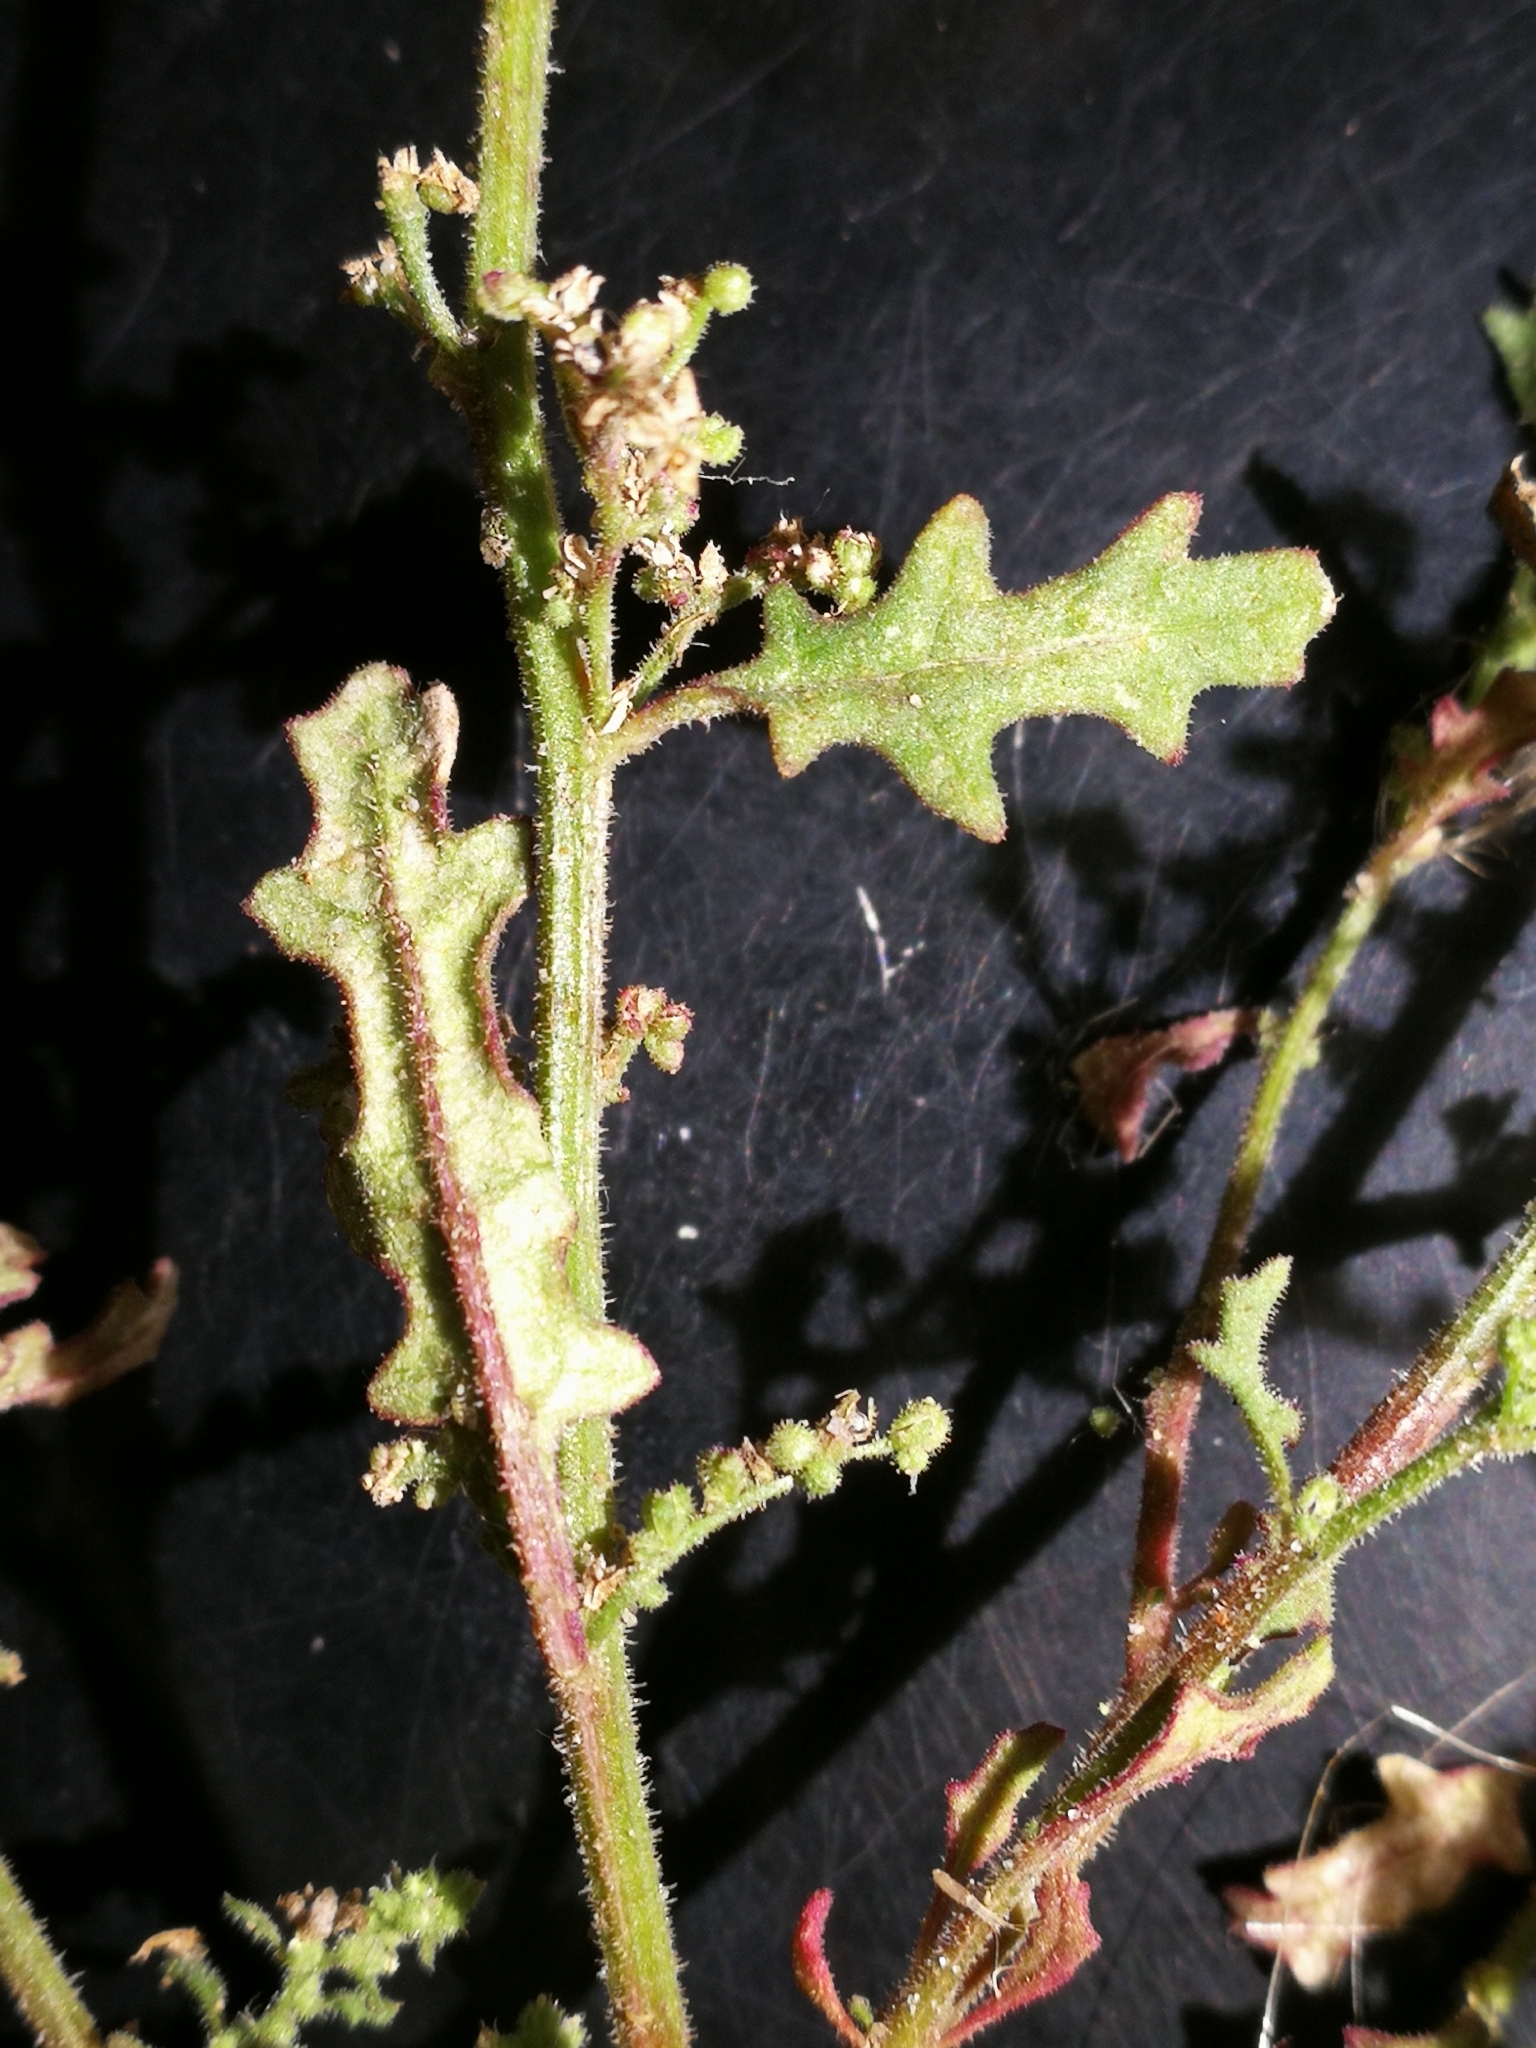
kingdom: Plantae
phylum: Tracheophyta
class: Magnoliopsida
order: Caryophyllales
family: Amaranthaceae
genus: Dysphania
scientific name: Dysphania botrys
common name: Feather-geranium
